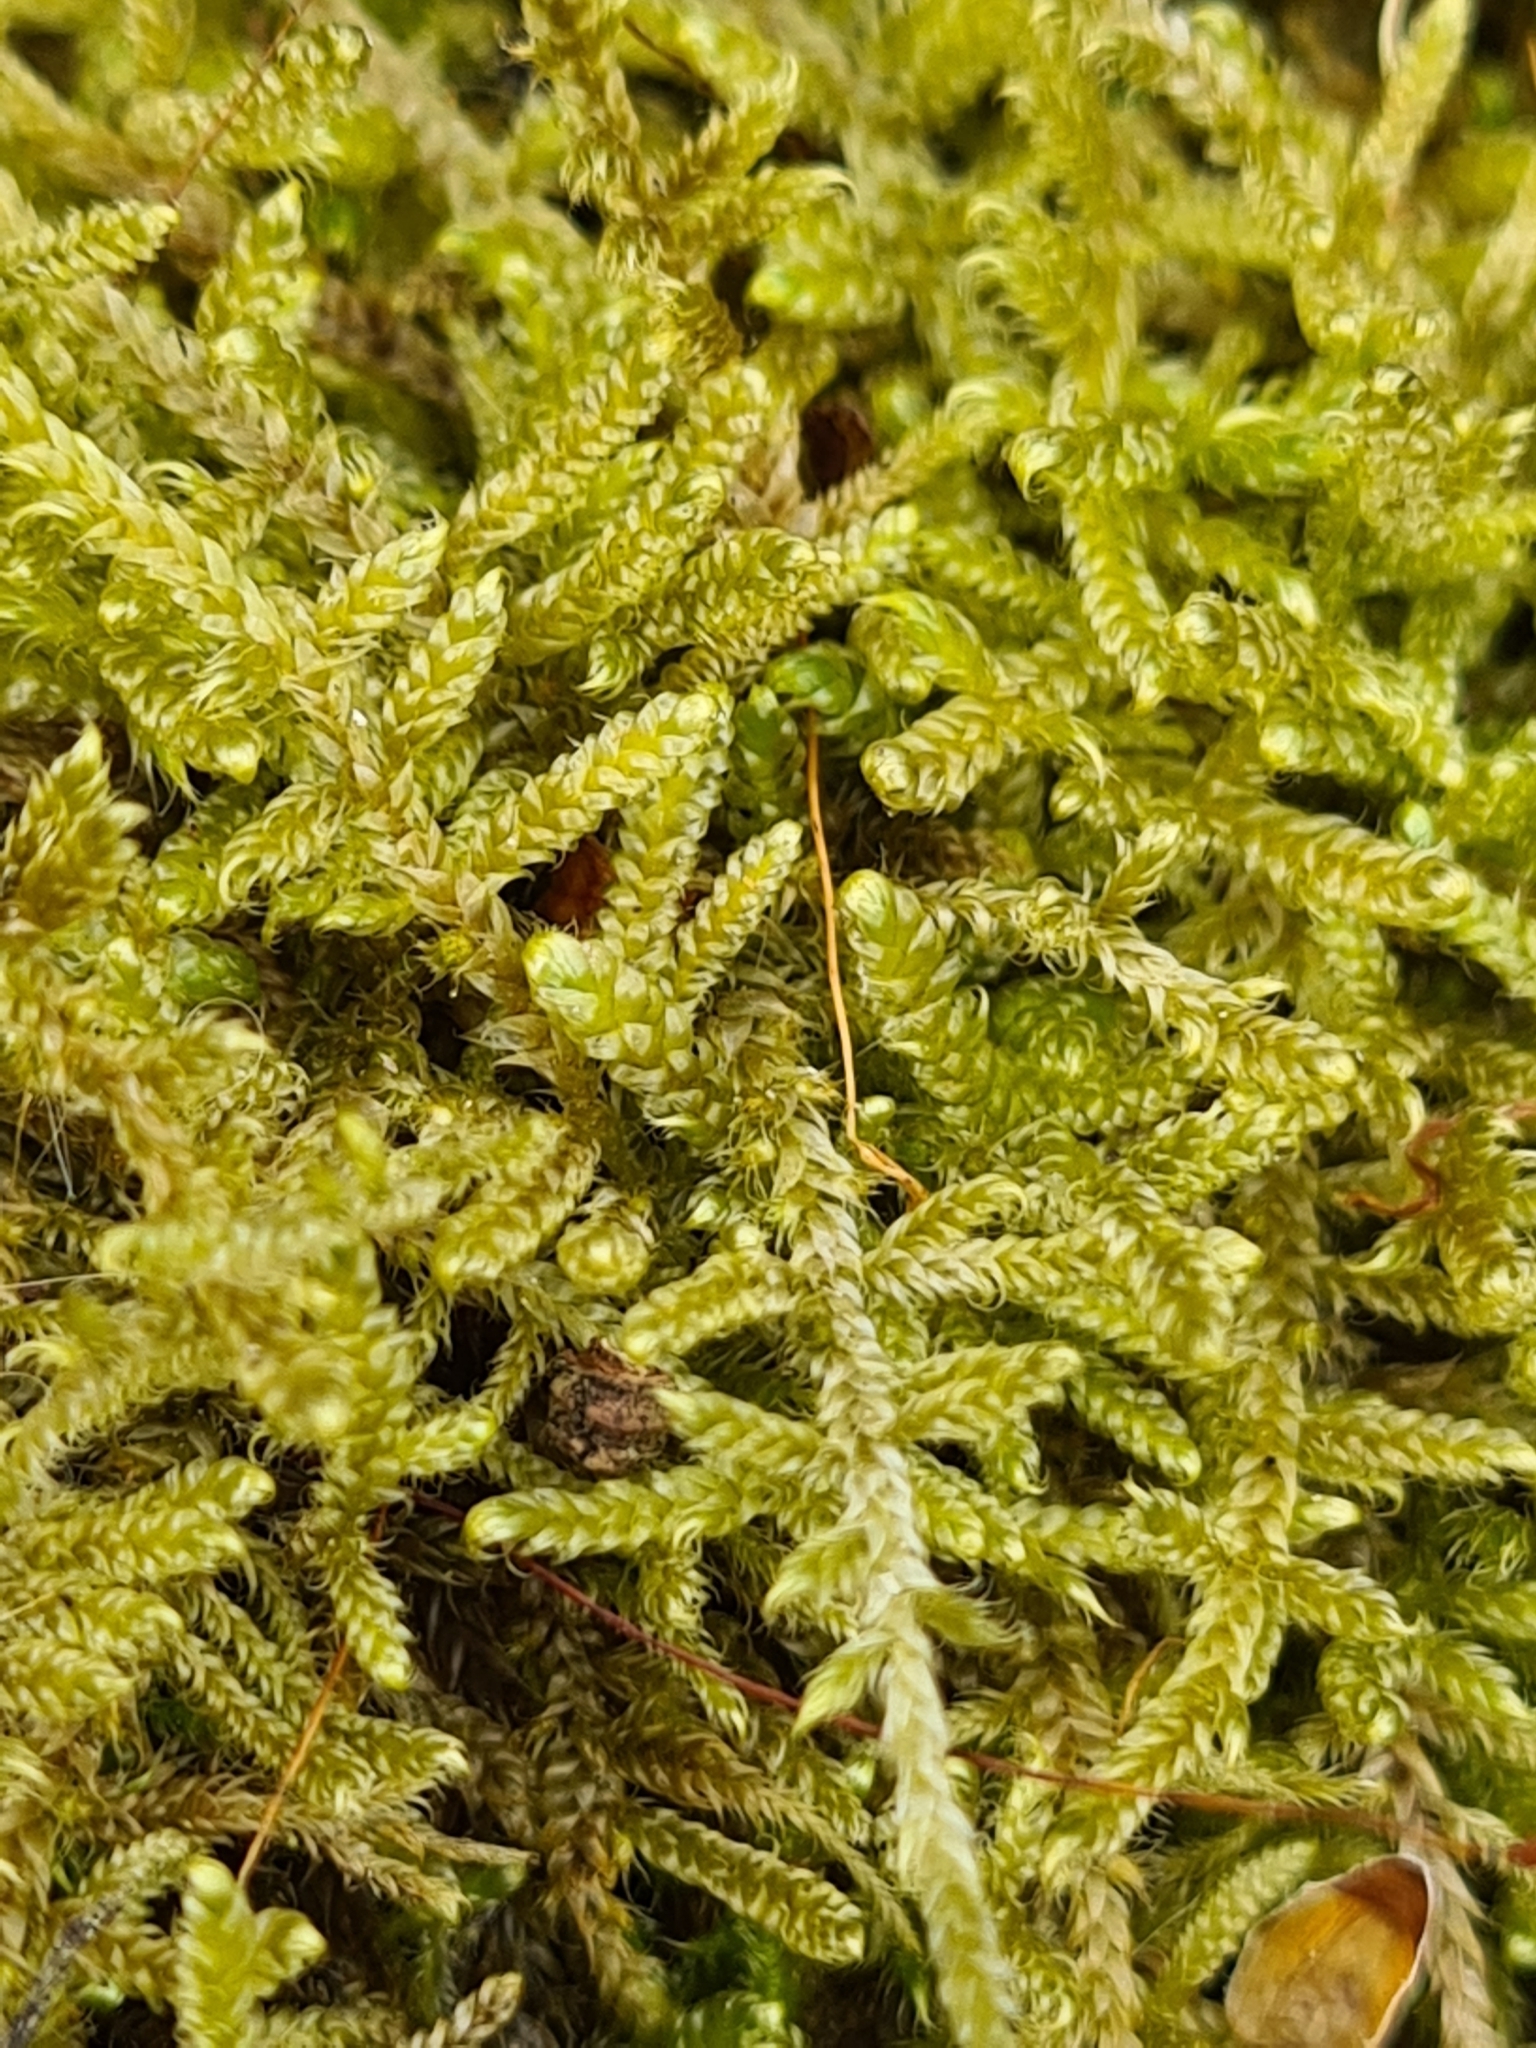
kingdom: Plantae
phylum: Bryophyta
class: Bryopsida
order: Hypnales
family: Hypnaceae
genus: Hypnum
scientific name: Hypnum cupressiforme
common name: Cypress-leaved plait-moss
